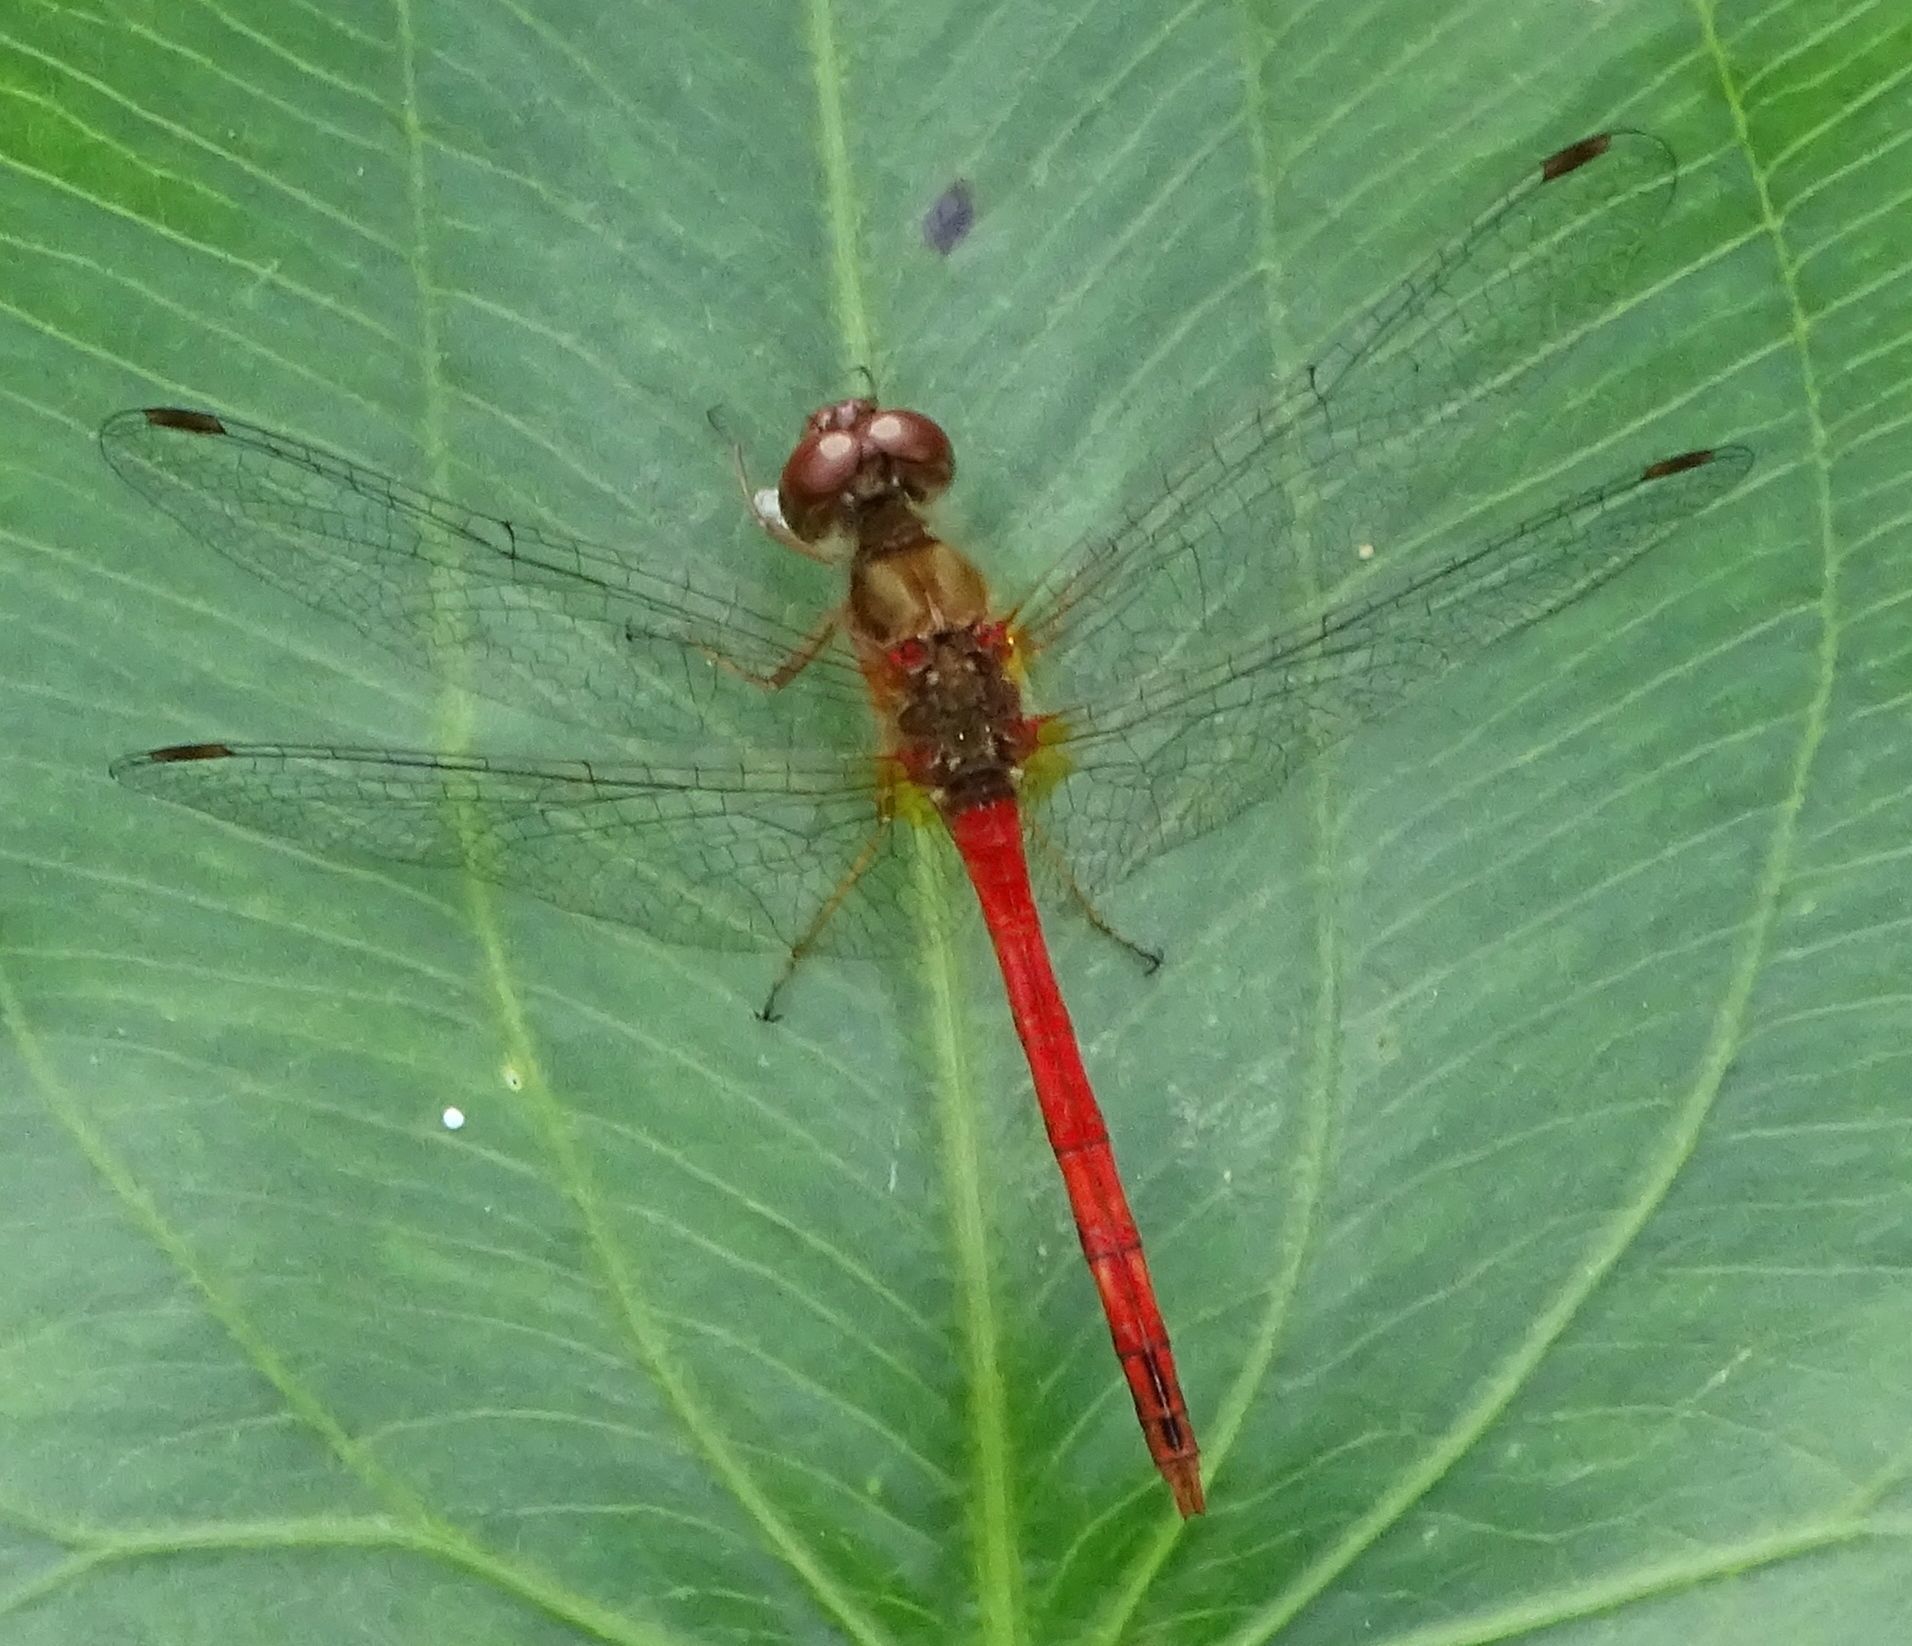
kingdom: Animalia
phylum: Arthropoda
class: Insecta
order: Odonata
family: Libellulidae
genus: Sympetrum
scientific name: Sympetrum vicinum
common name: Autumn meadowhawk
